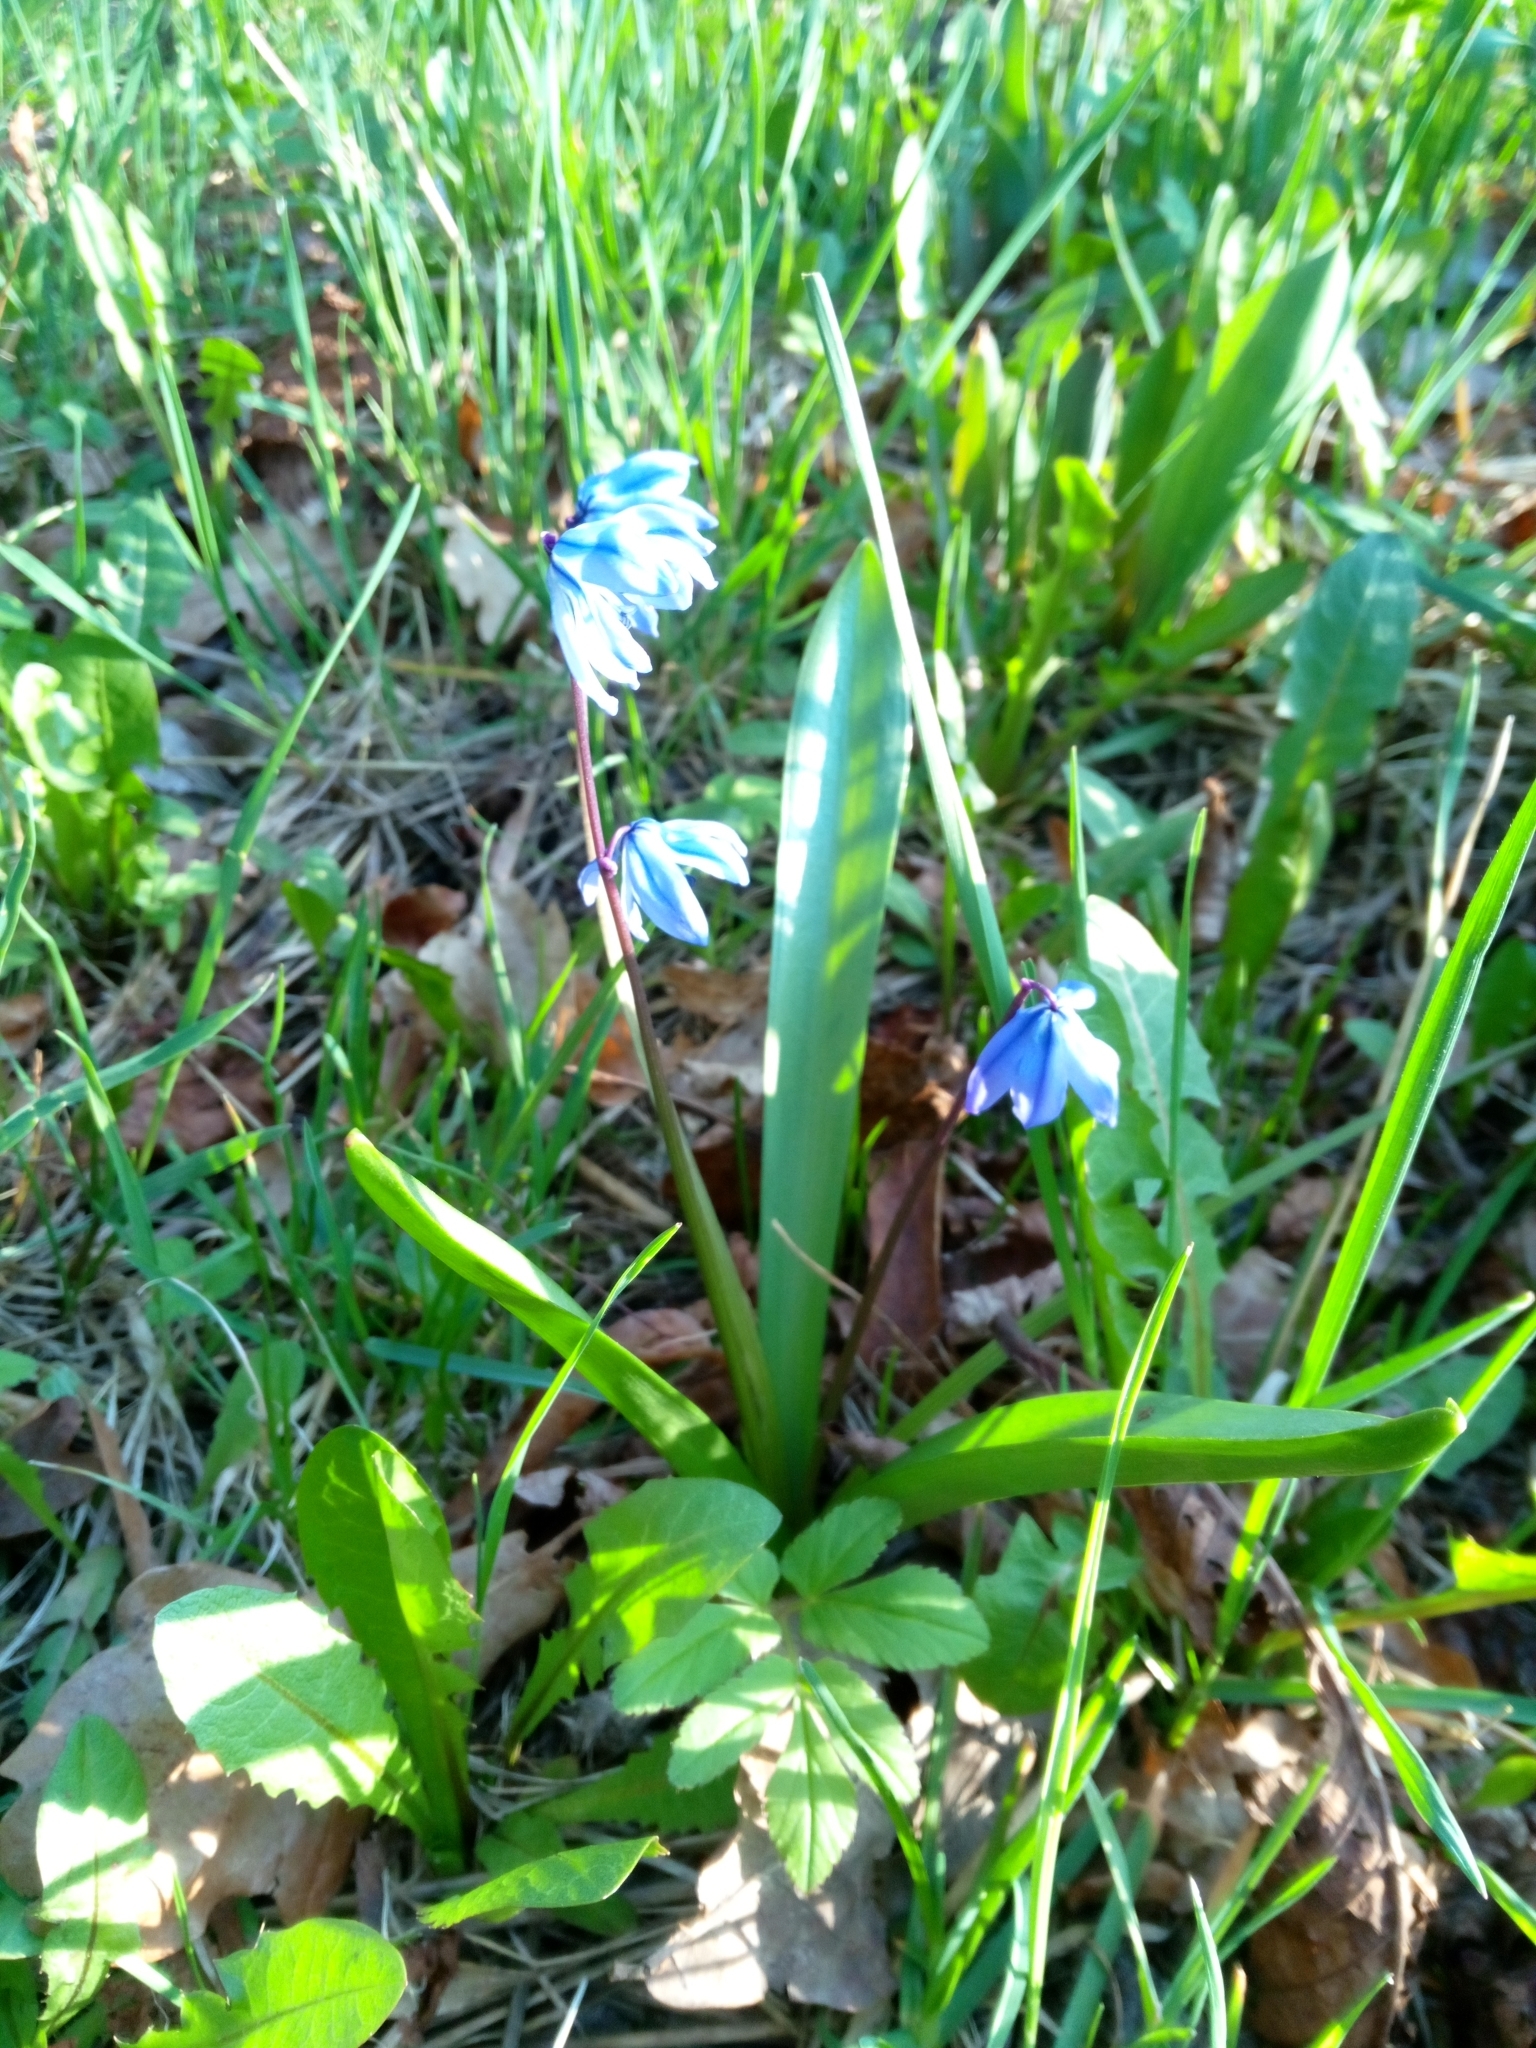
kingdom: Plantae
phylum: Tracheophyta
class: Liliopsida
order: Asparagales
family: Asparagaceae
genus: Scilla
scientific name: Scilla siberica
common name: Siberian squill
